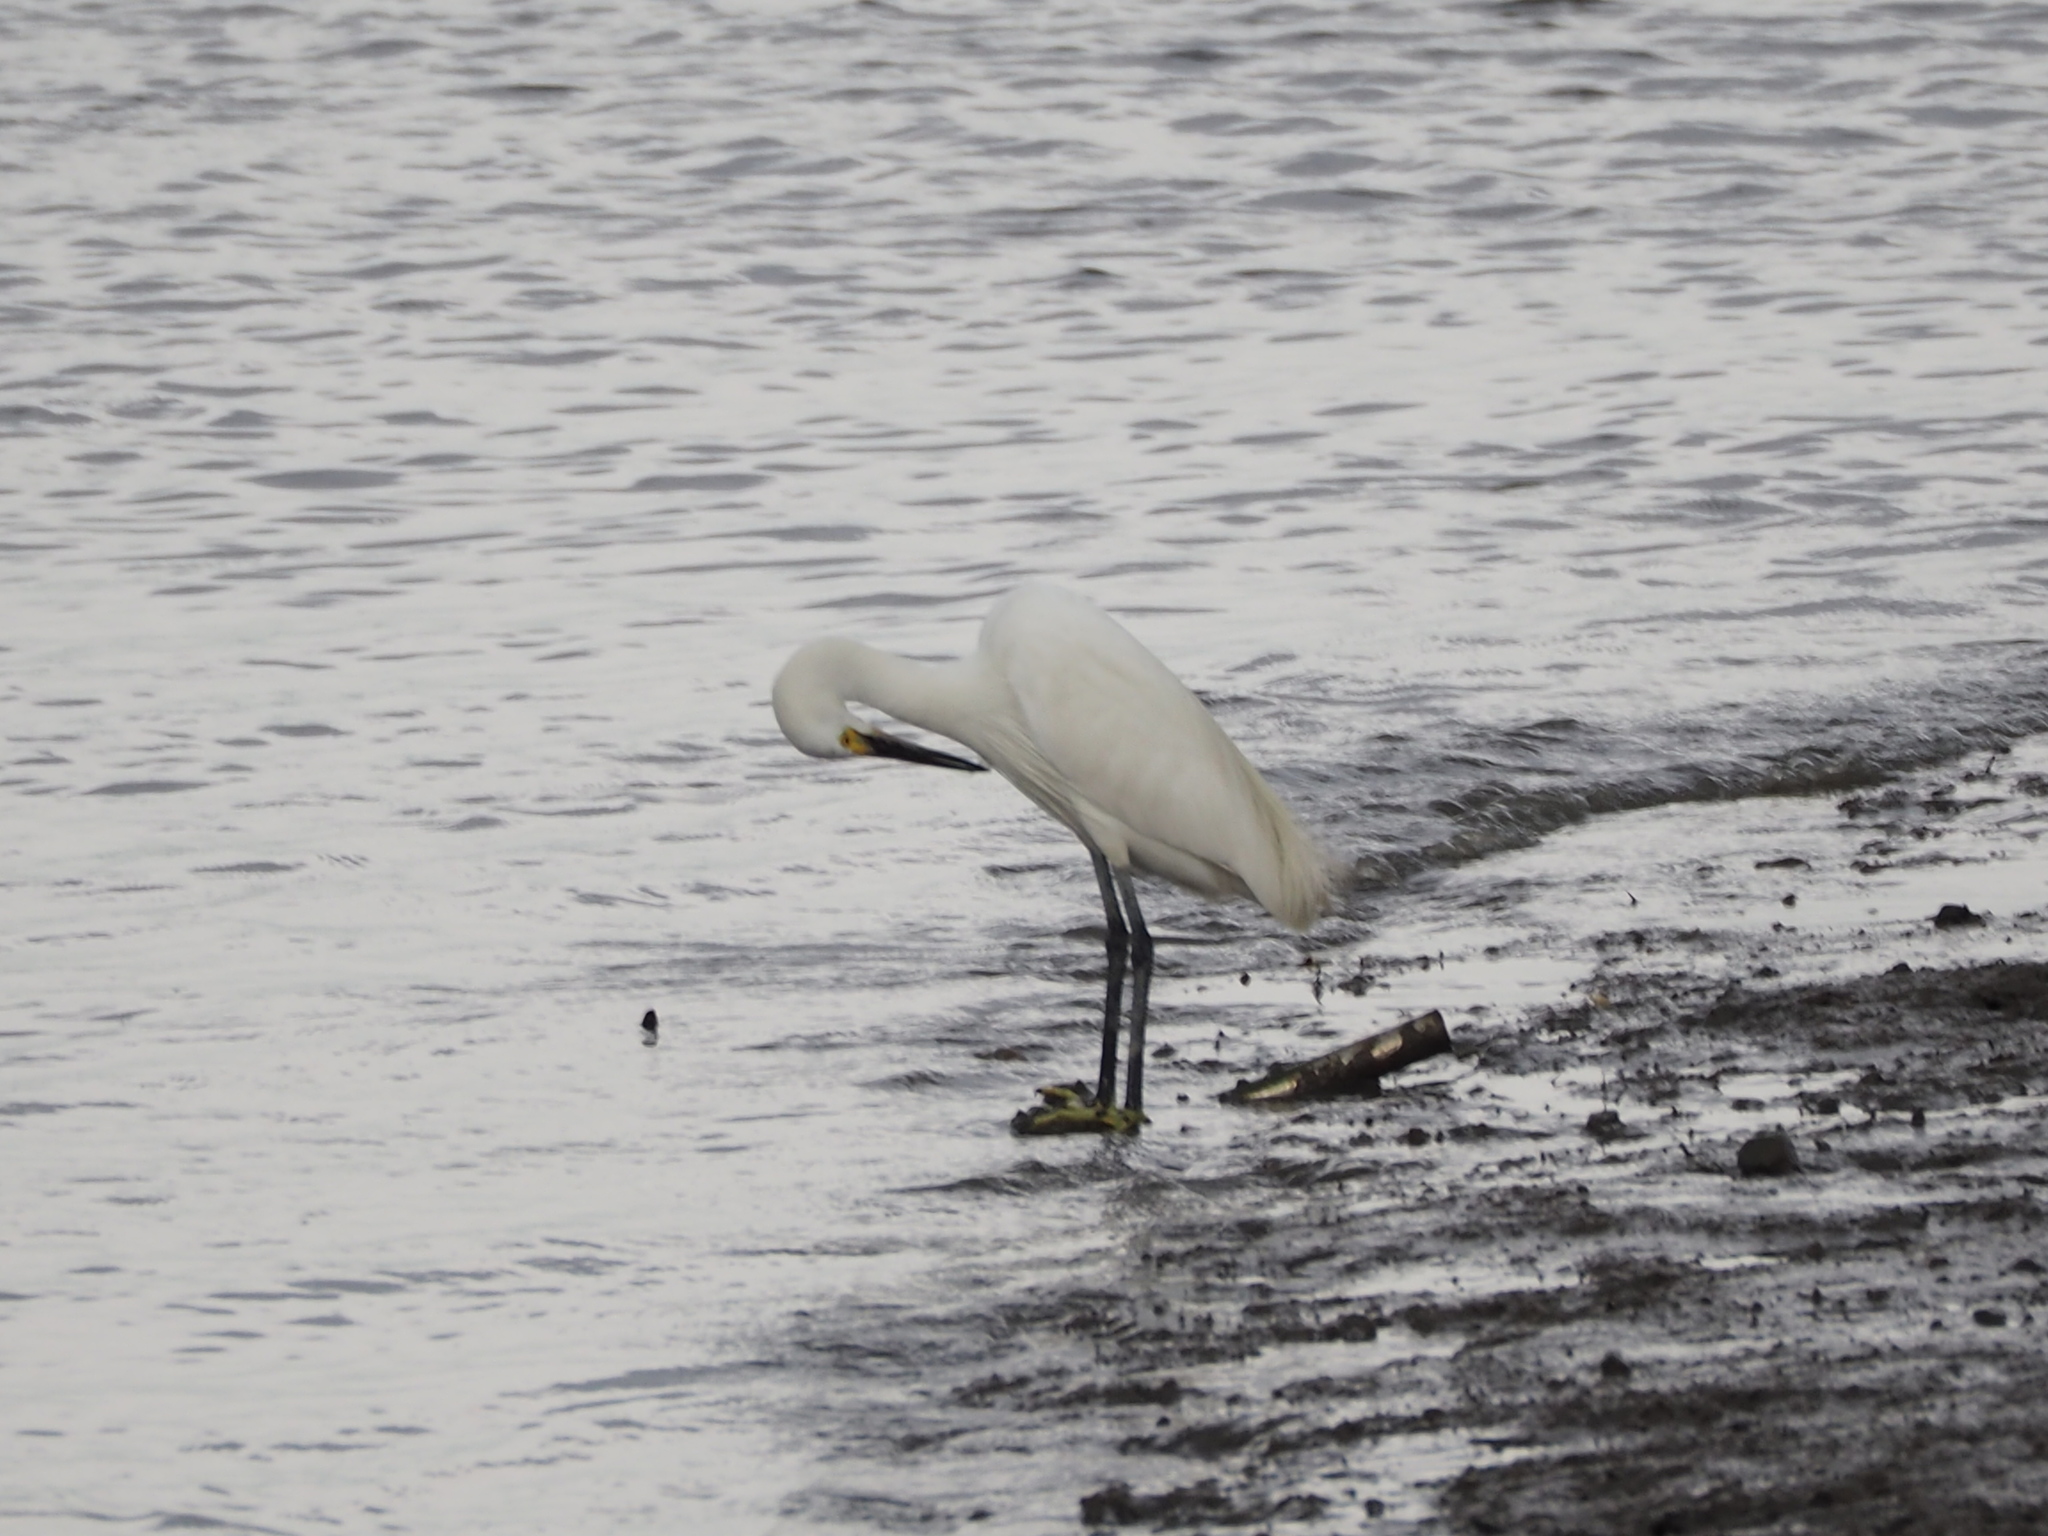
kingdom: Animalia
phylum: Chordata
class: Aves
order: Pelecaniformes
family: Ardeidae
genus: Egretta
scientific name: Egretta garzetta
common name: Little egret
